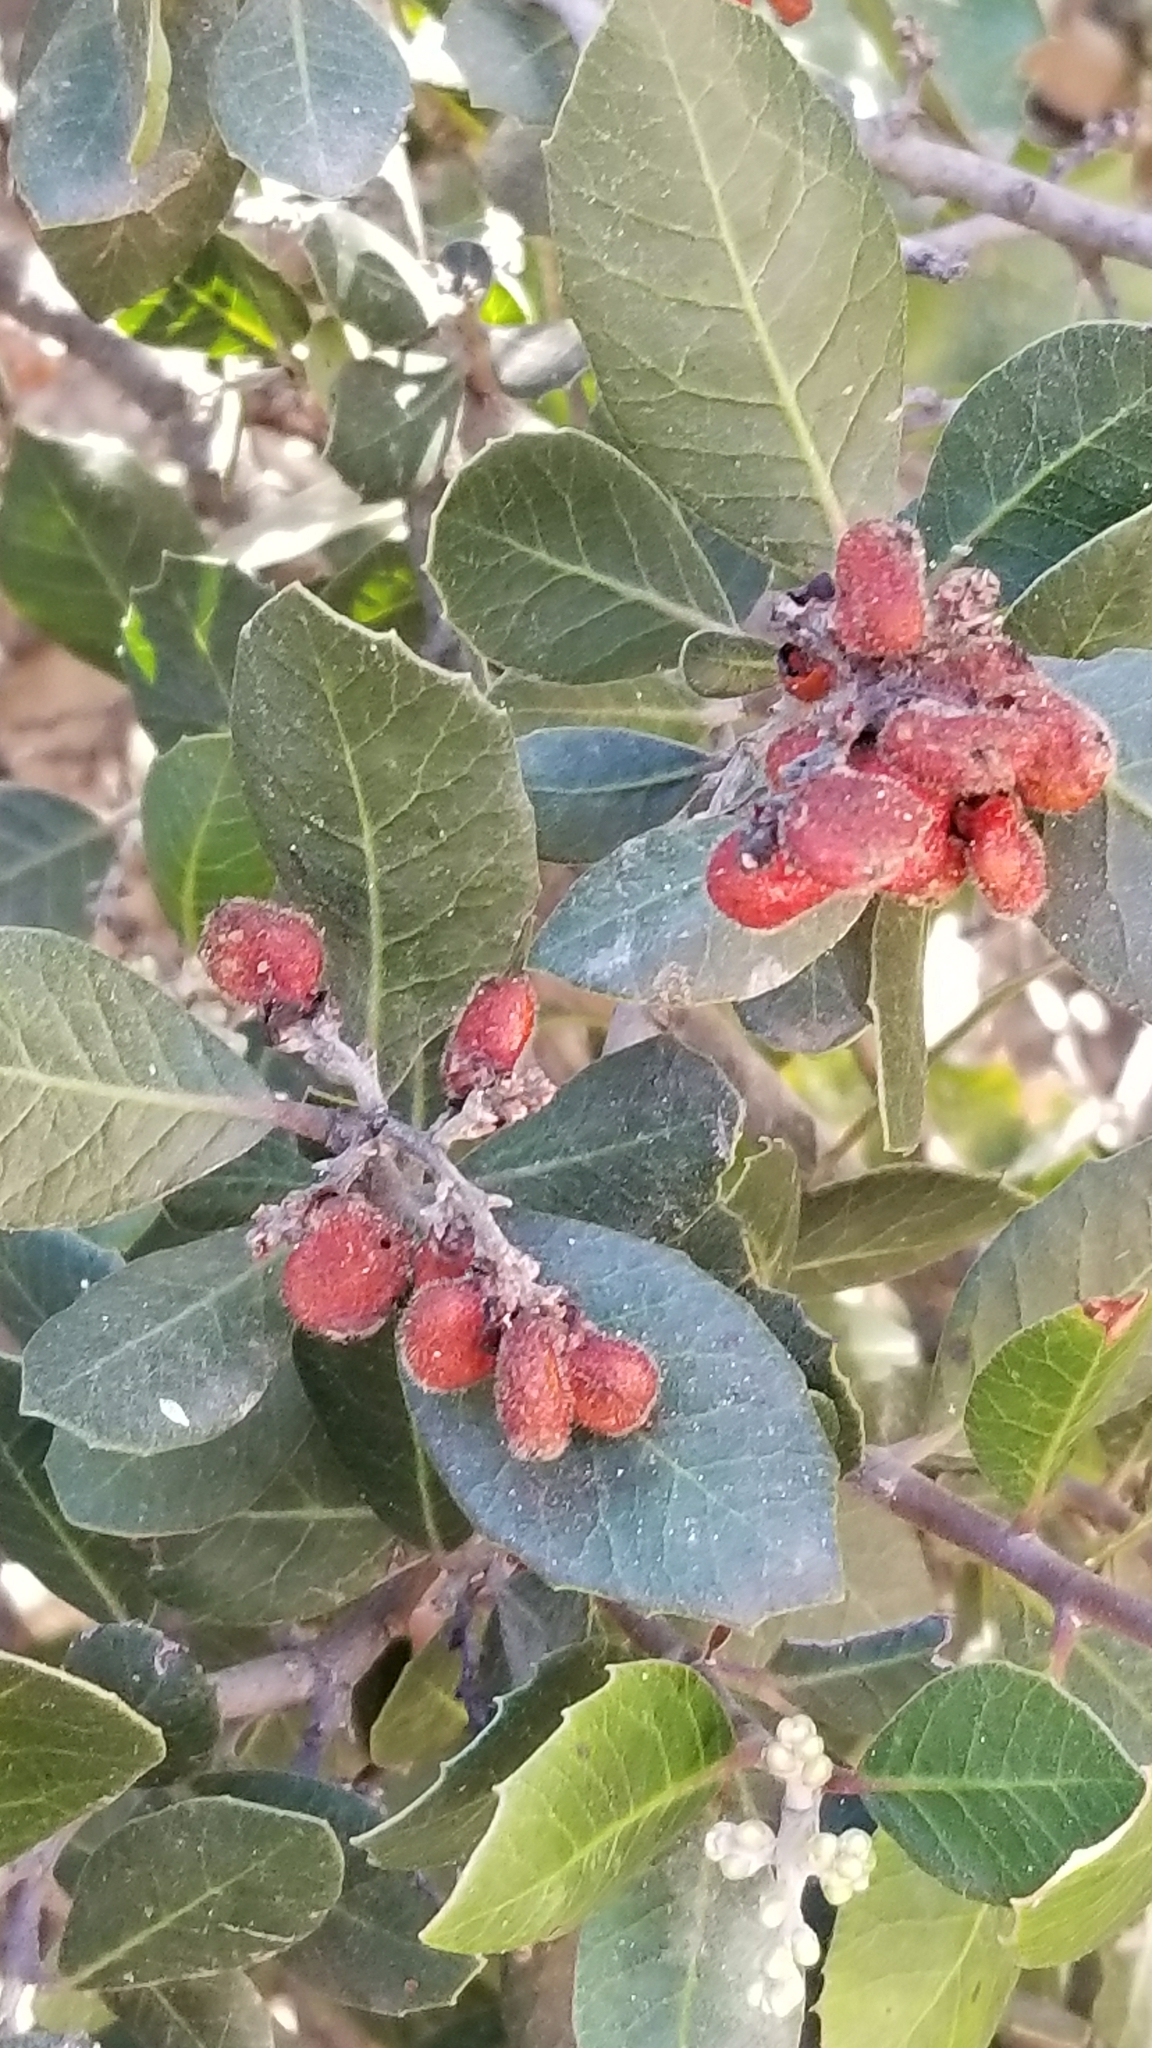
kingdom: Plantae
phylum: Tracheophyta
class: Magnoliopsida
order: Sapindales
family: Anacardiaceae
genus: Rhus
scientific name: Rhus integrifolia
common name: Lemonade sumac
